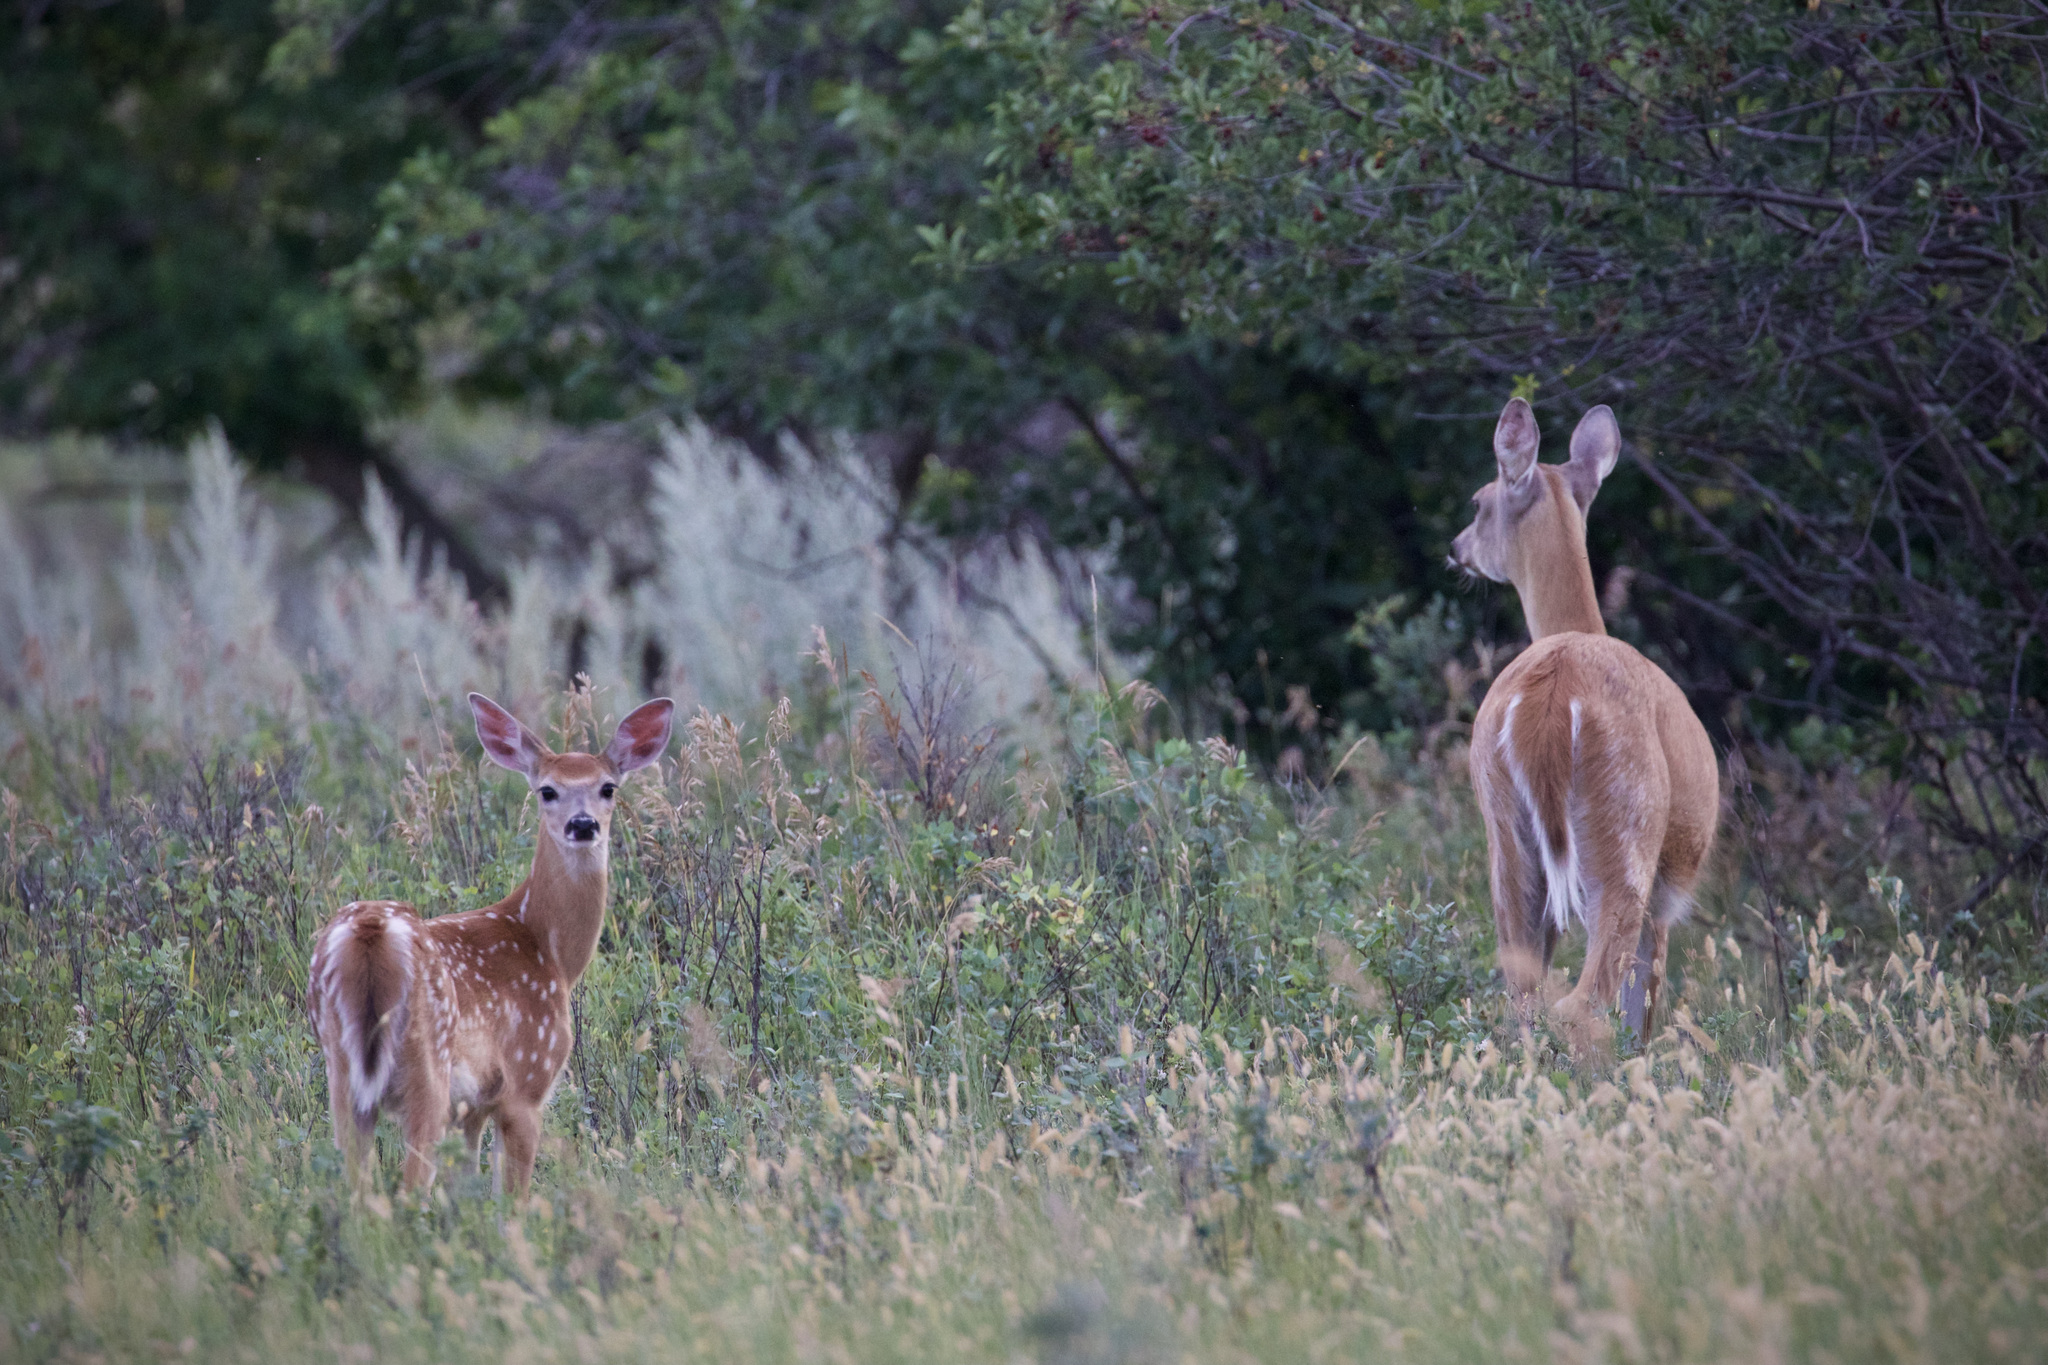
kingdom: Animalia
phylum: Chordata
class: Mammalia
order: Artiodactyla
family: Cervidae
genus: Odocoileus
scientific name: Odocoileus virginianus
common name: White-tailed deer
